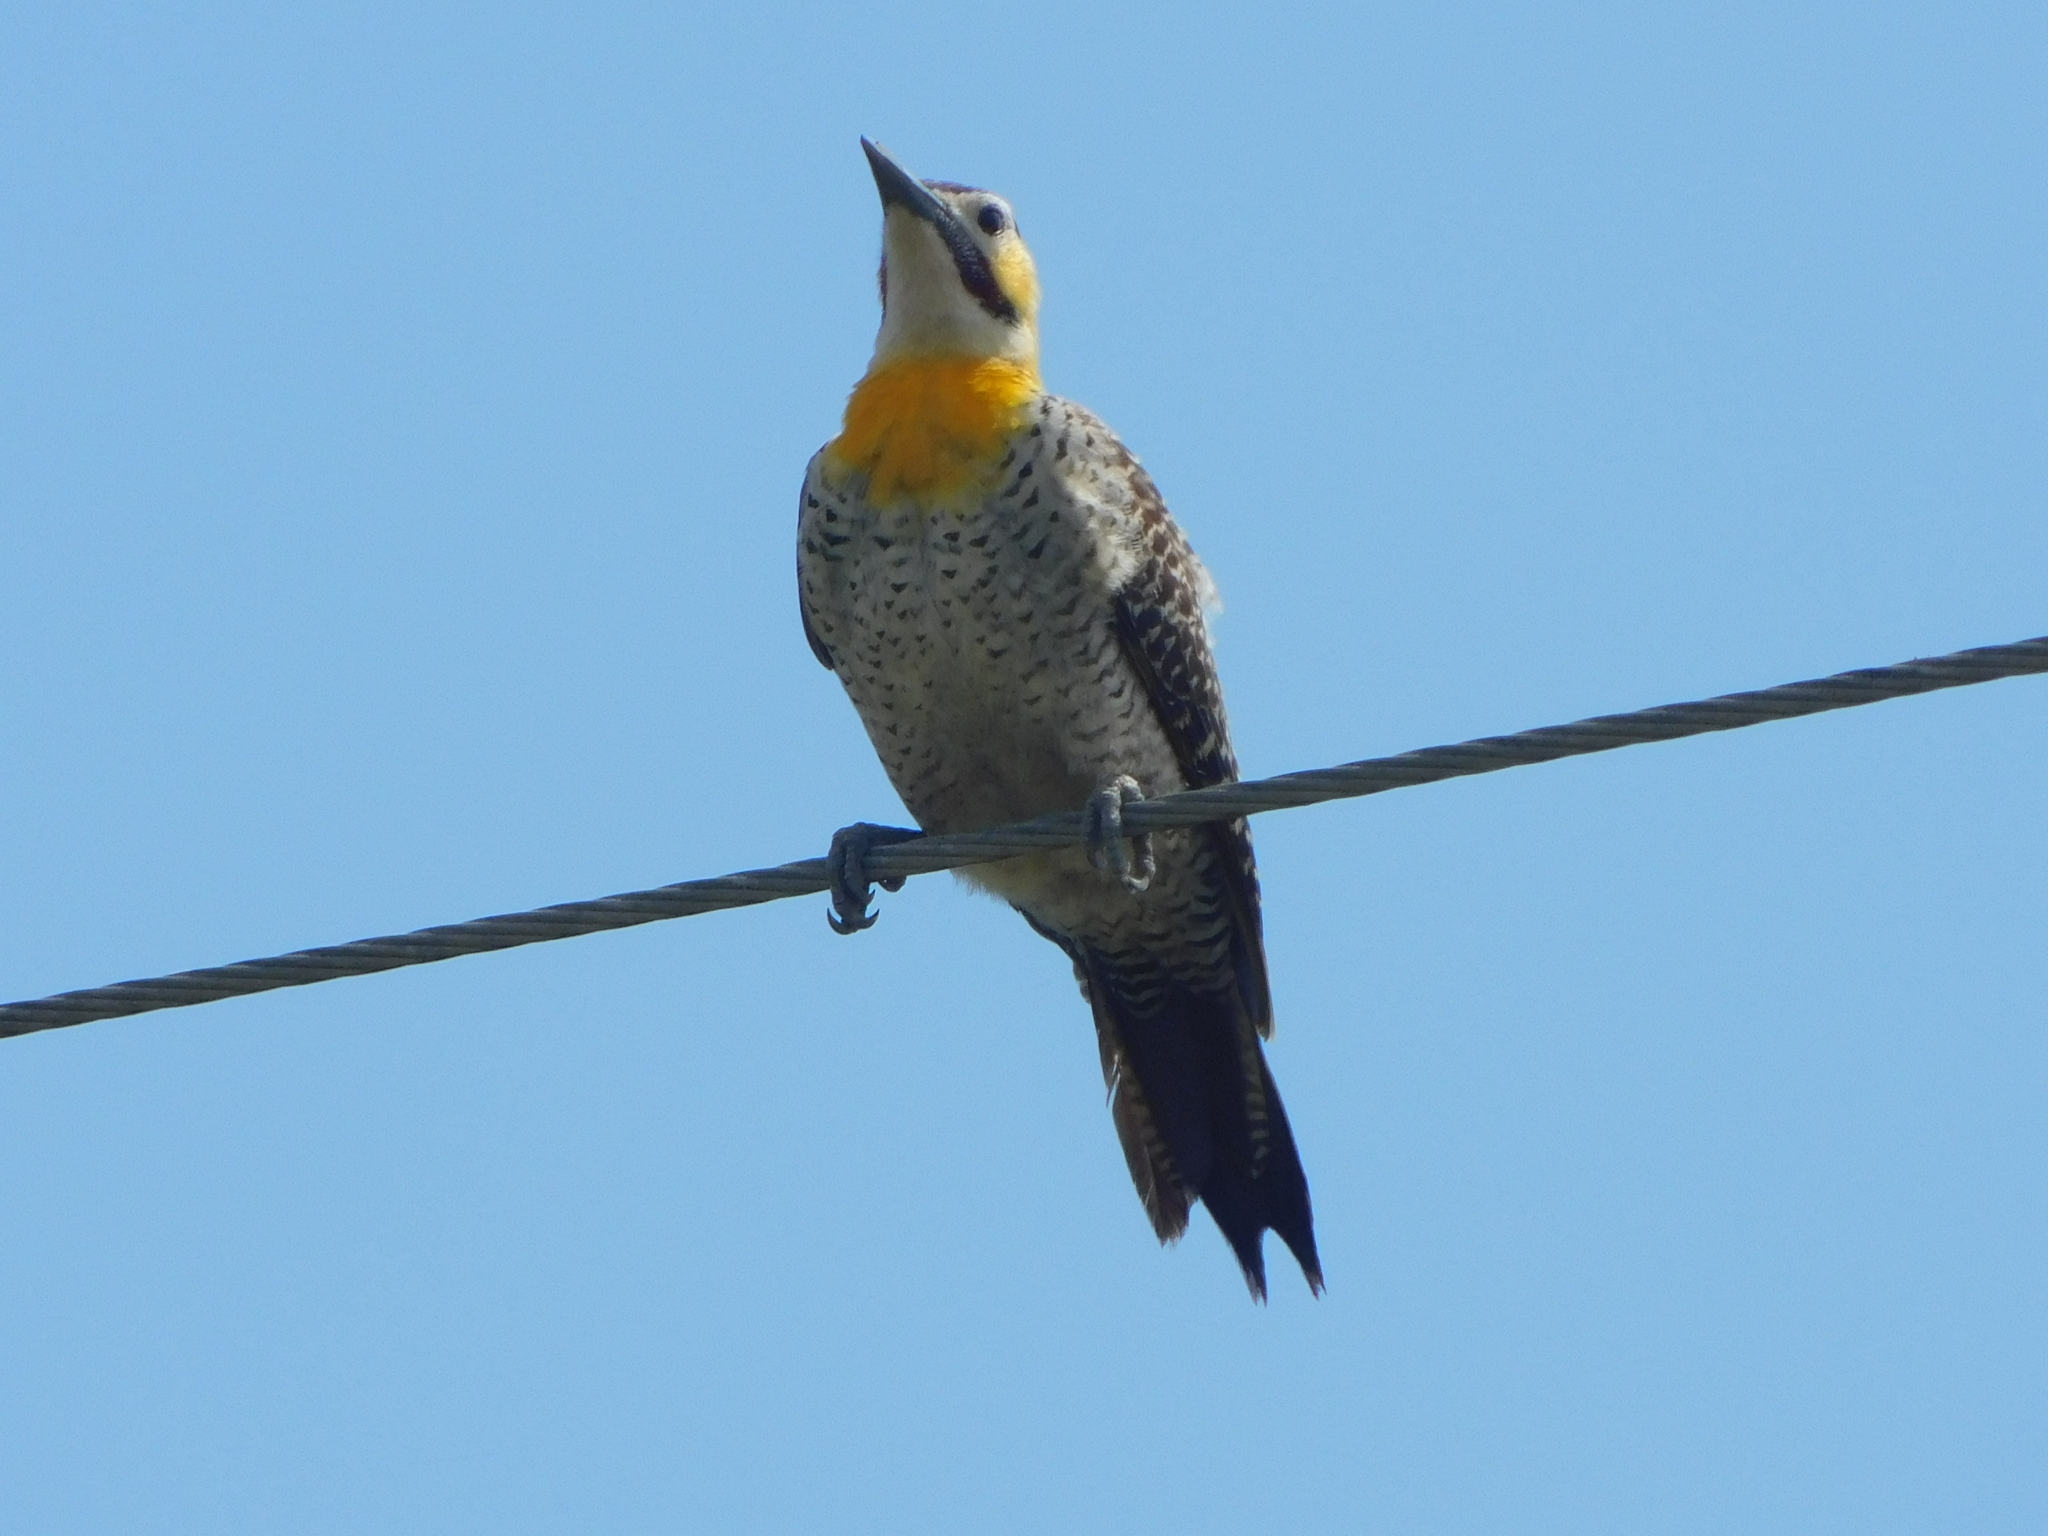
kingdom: Animalia
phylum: Chordata
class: Aves
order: Piciformes
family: Picidae
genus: Colaptes
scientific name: Colaptes campestris
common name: Campo flicker
